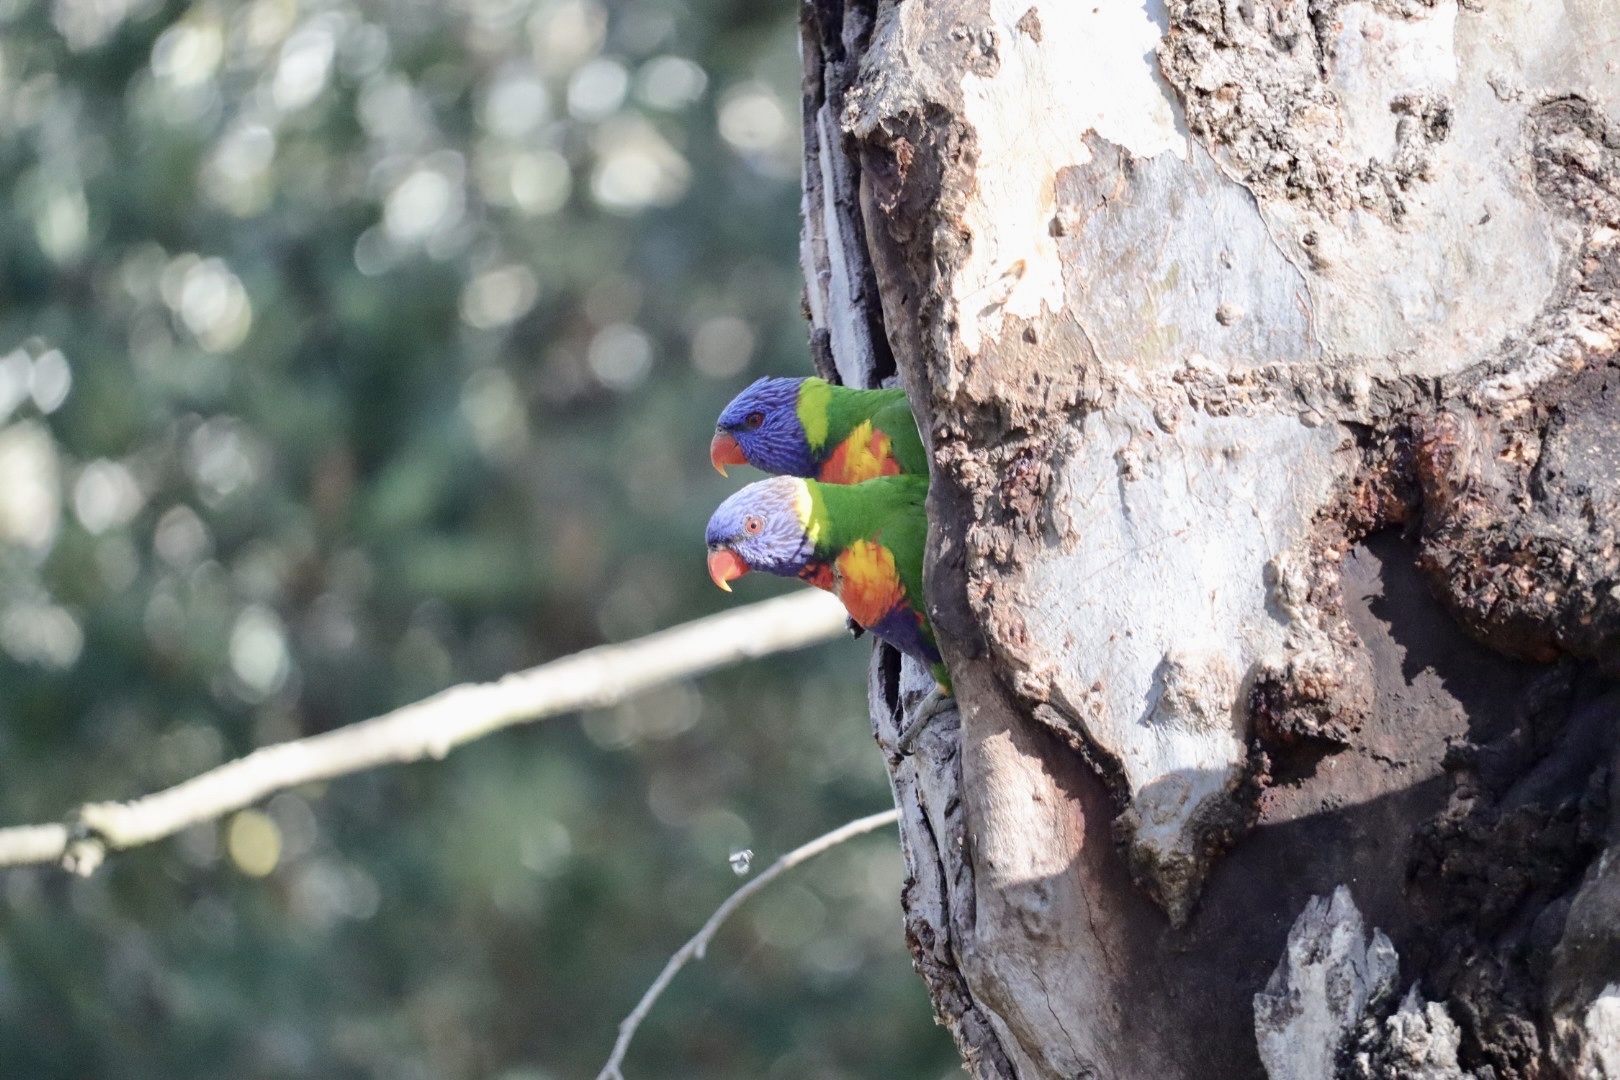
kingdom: Animalia
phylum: Chordata
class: Aves
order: Psittaciformes
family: Psittacidae
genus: Trichoglossus
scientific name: Trichoglossus haematodus
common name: Coconut lorikeet
